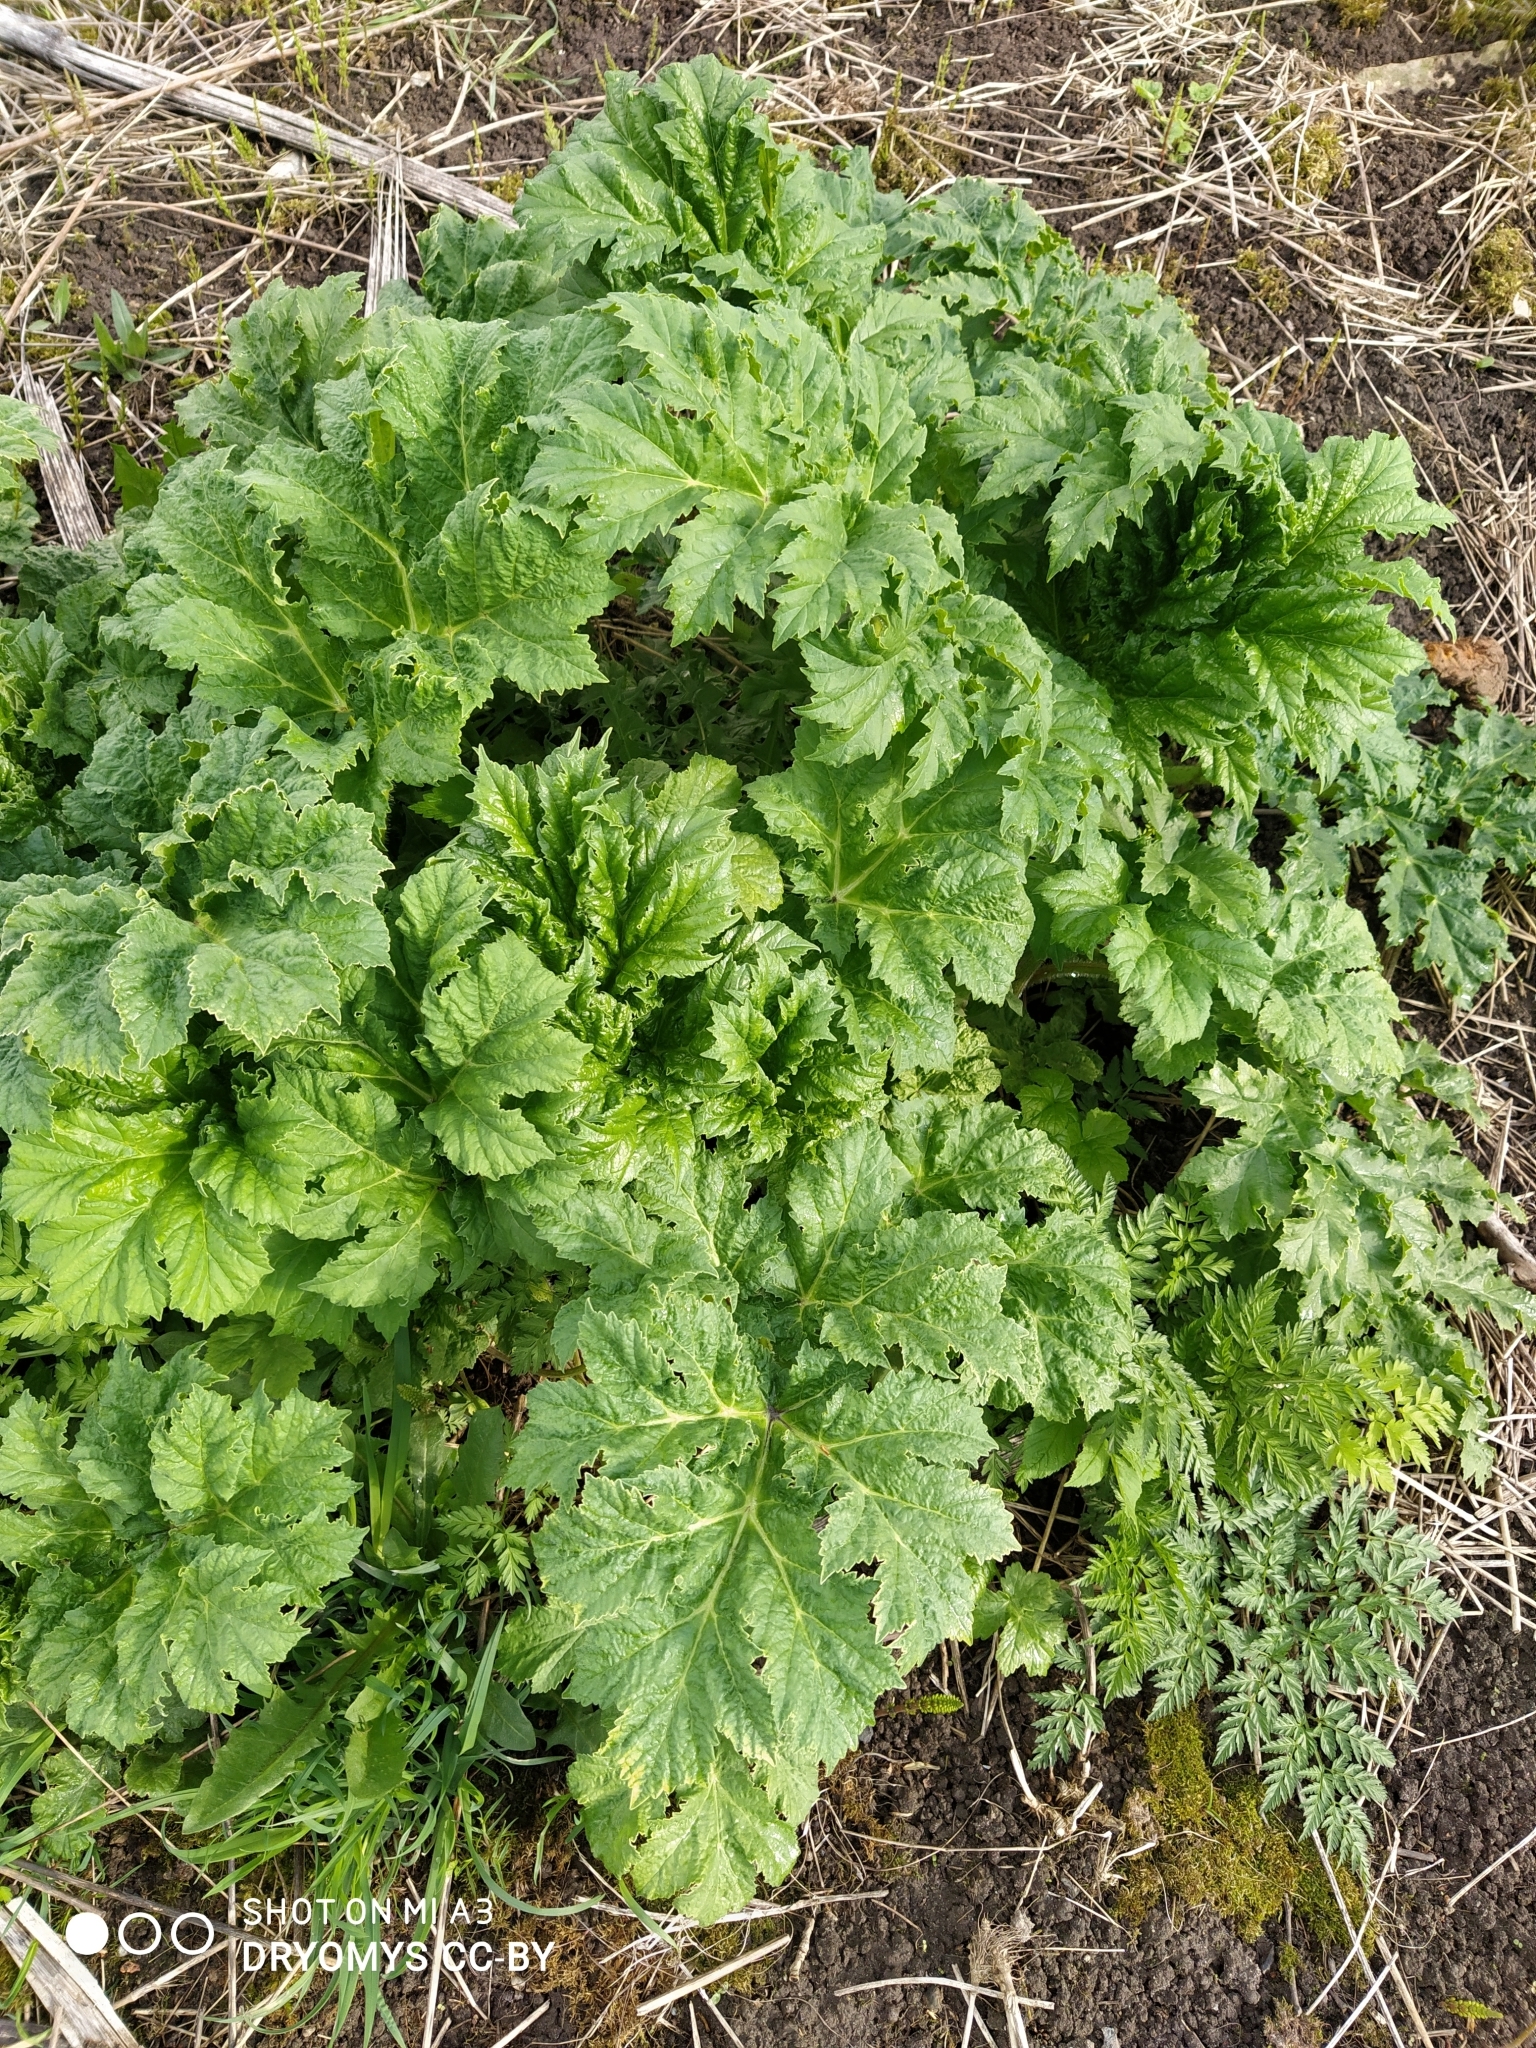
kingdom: Plantae
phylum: Tracheophyta
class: Magnoliopsida
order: Apiales
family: Apiaceae
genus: Heracleum
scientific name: Heracleum sosnowskyi
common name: Sosnowsky's hogweed
